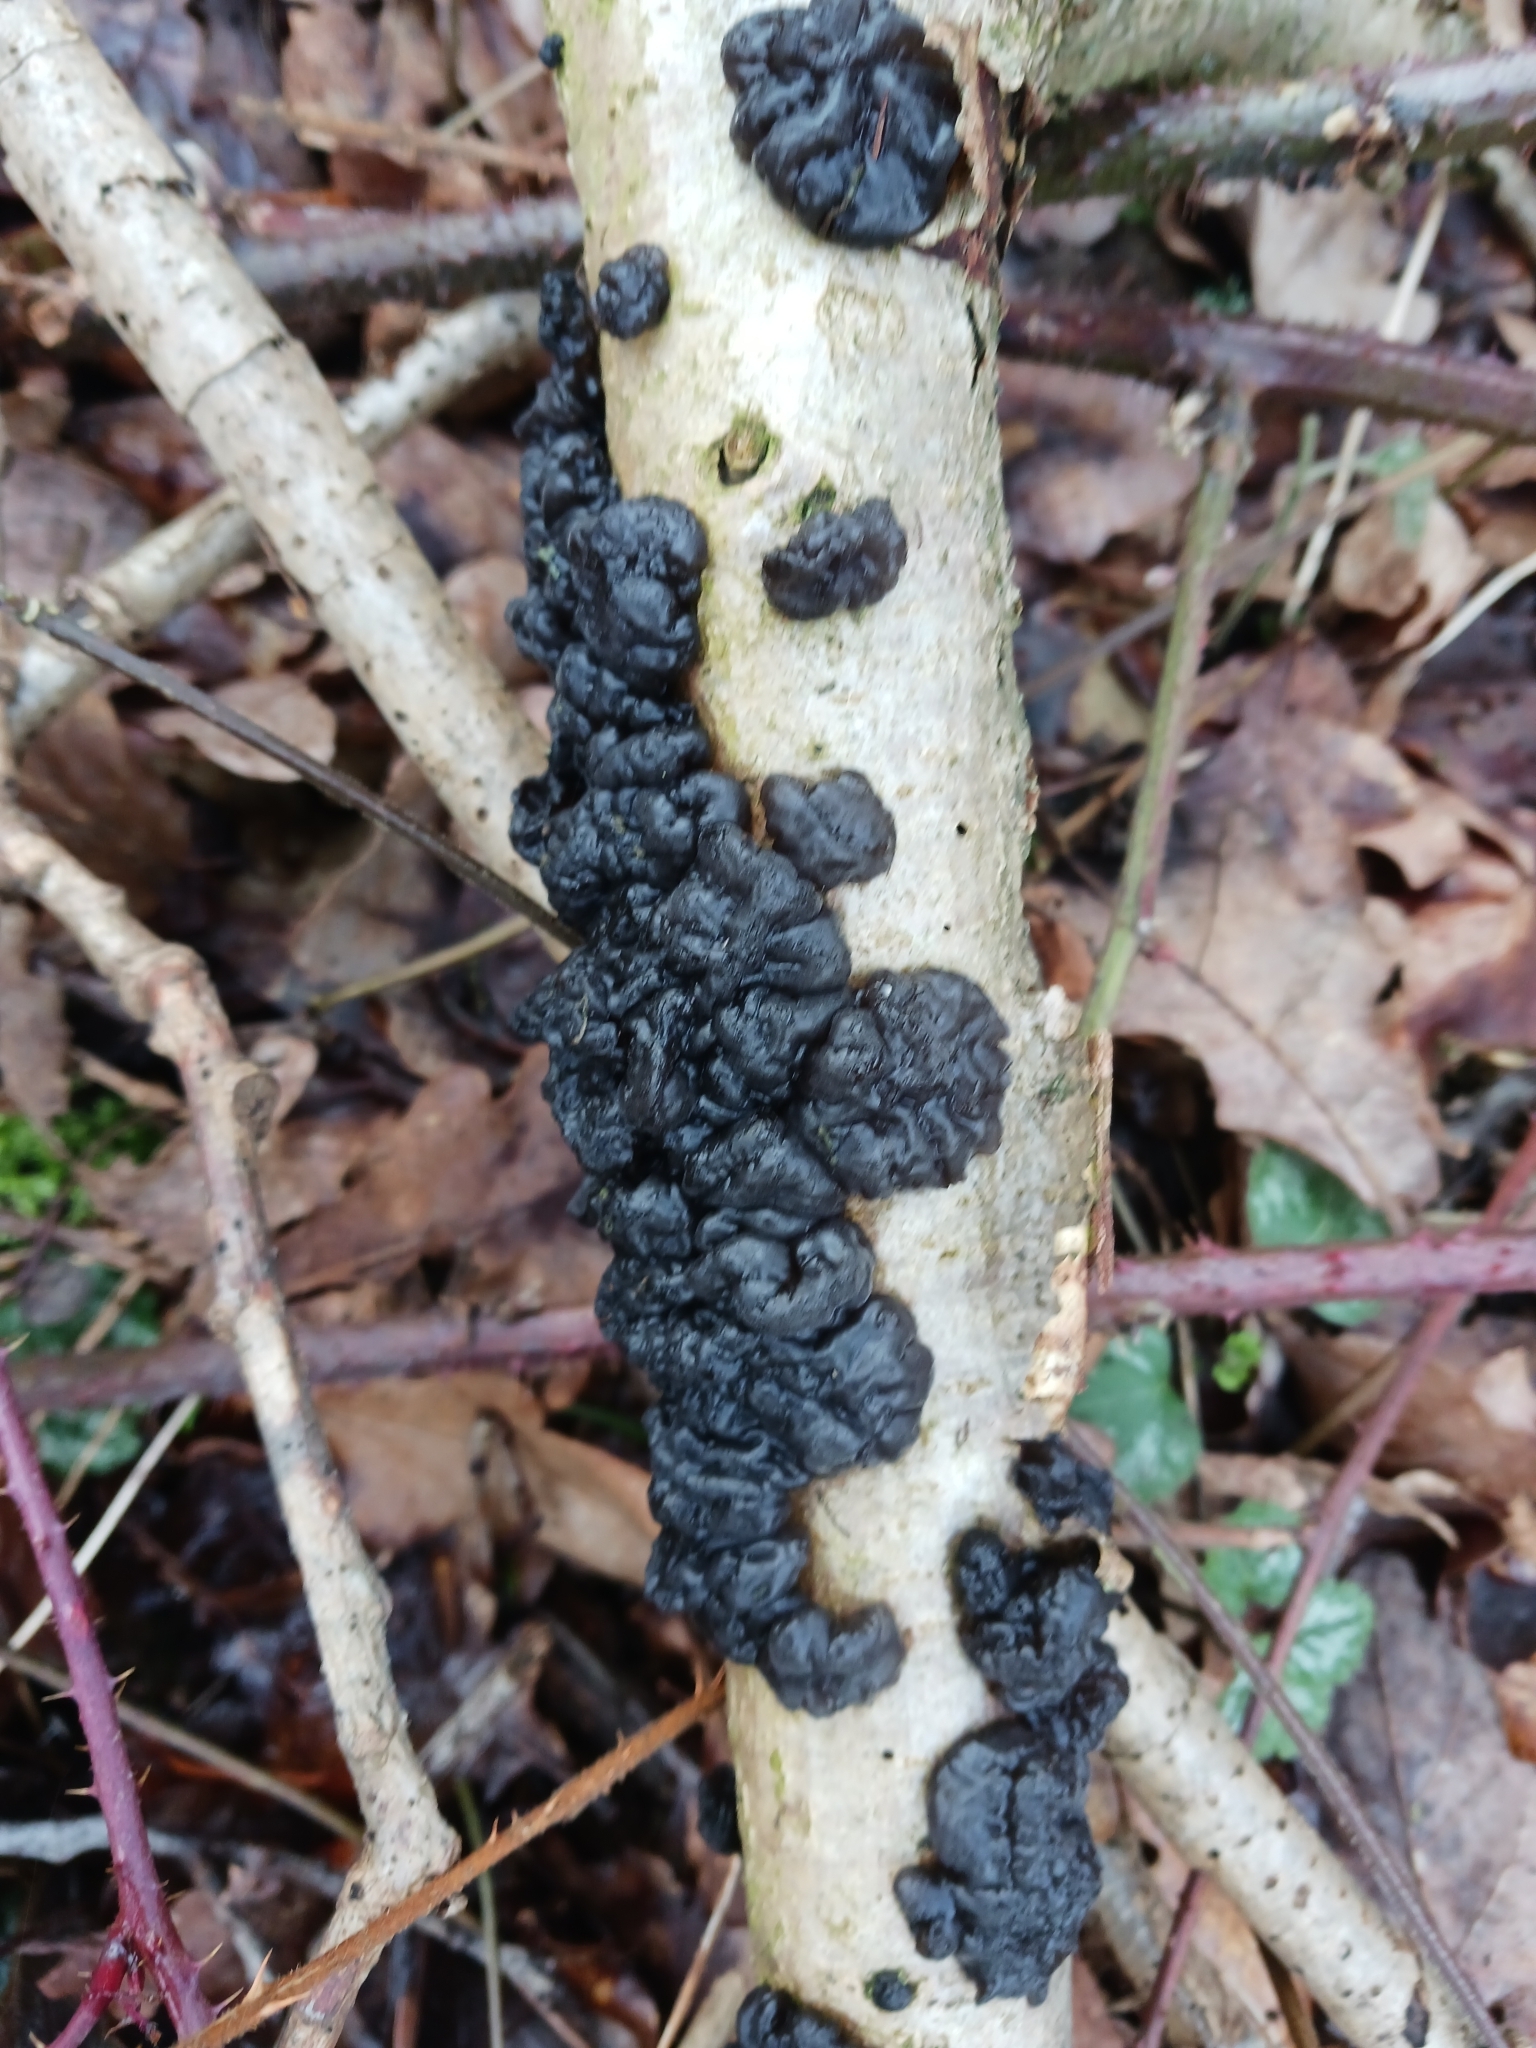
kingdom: Fungi
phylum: Basidiomycota
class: Agaricomycetes
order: Auriculariales
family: Auriculariaceae
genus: Exidia
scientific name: Exidia nigricans
